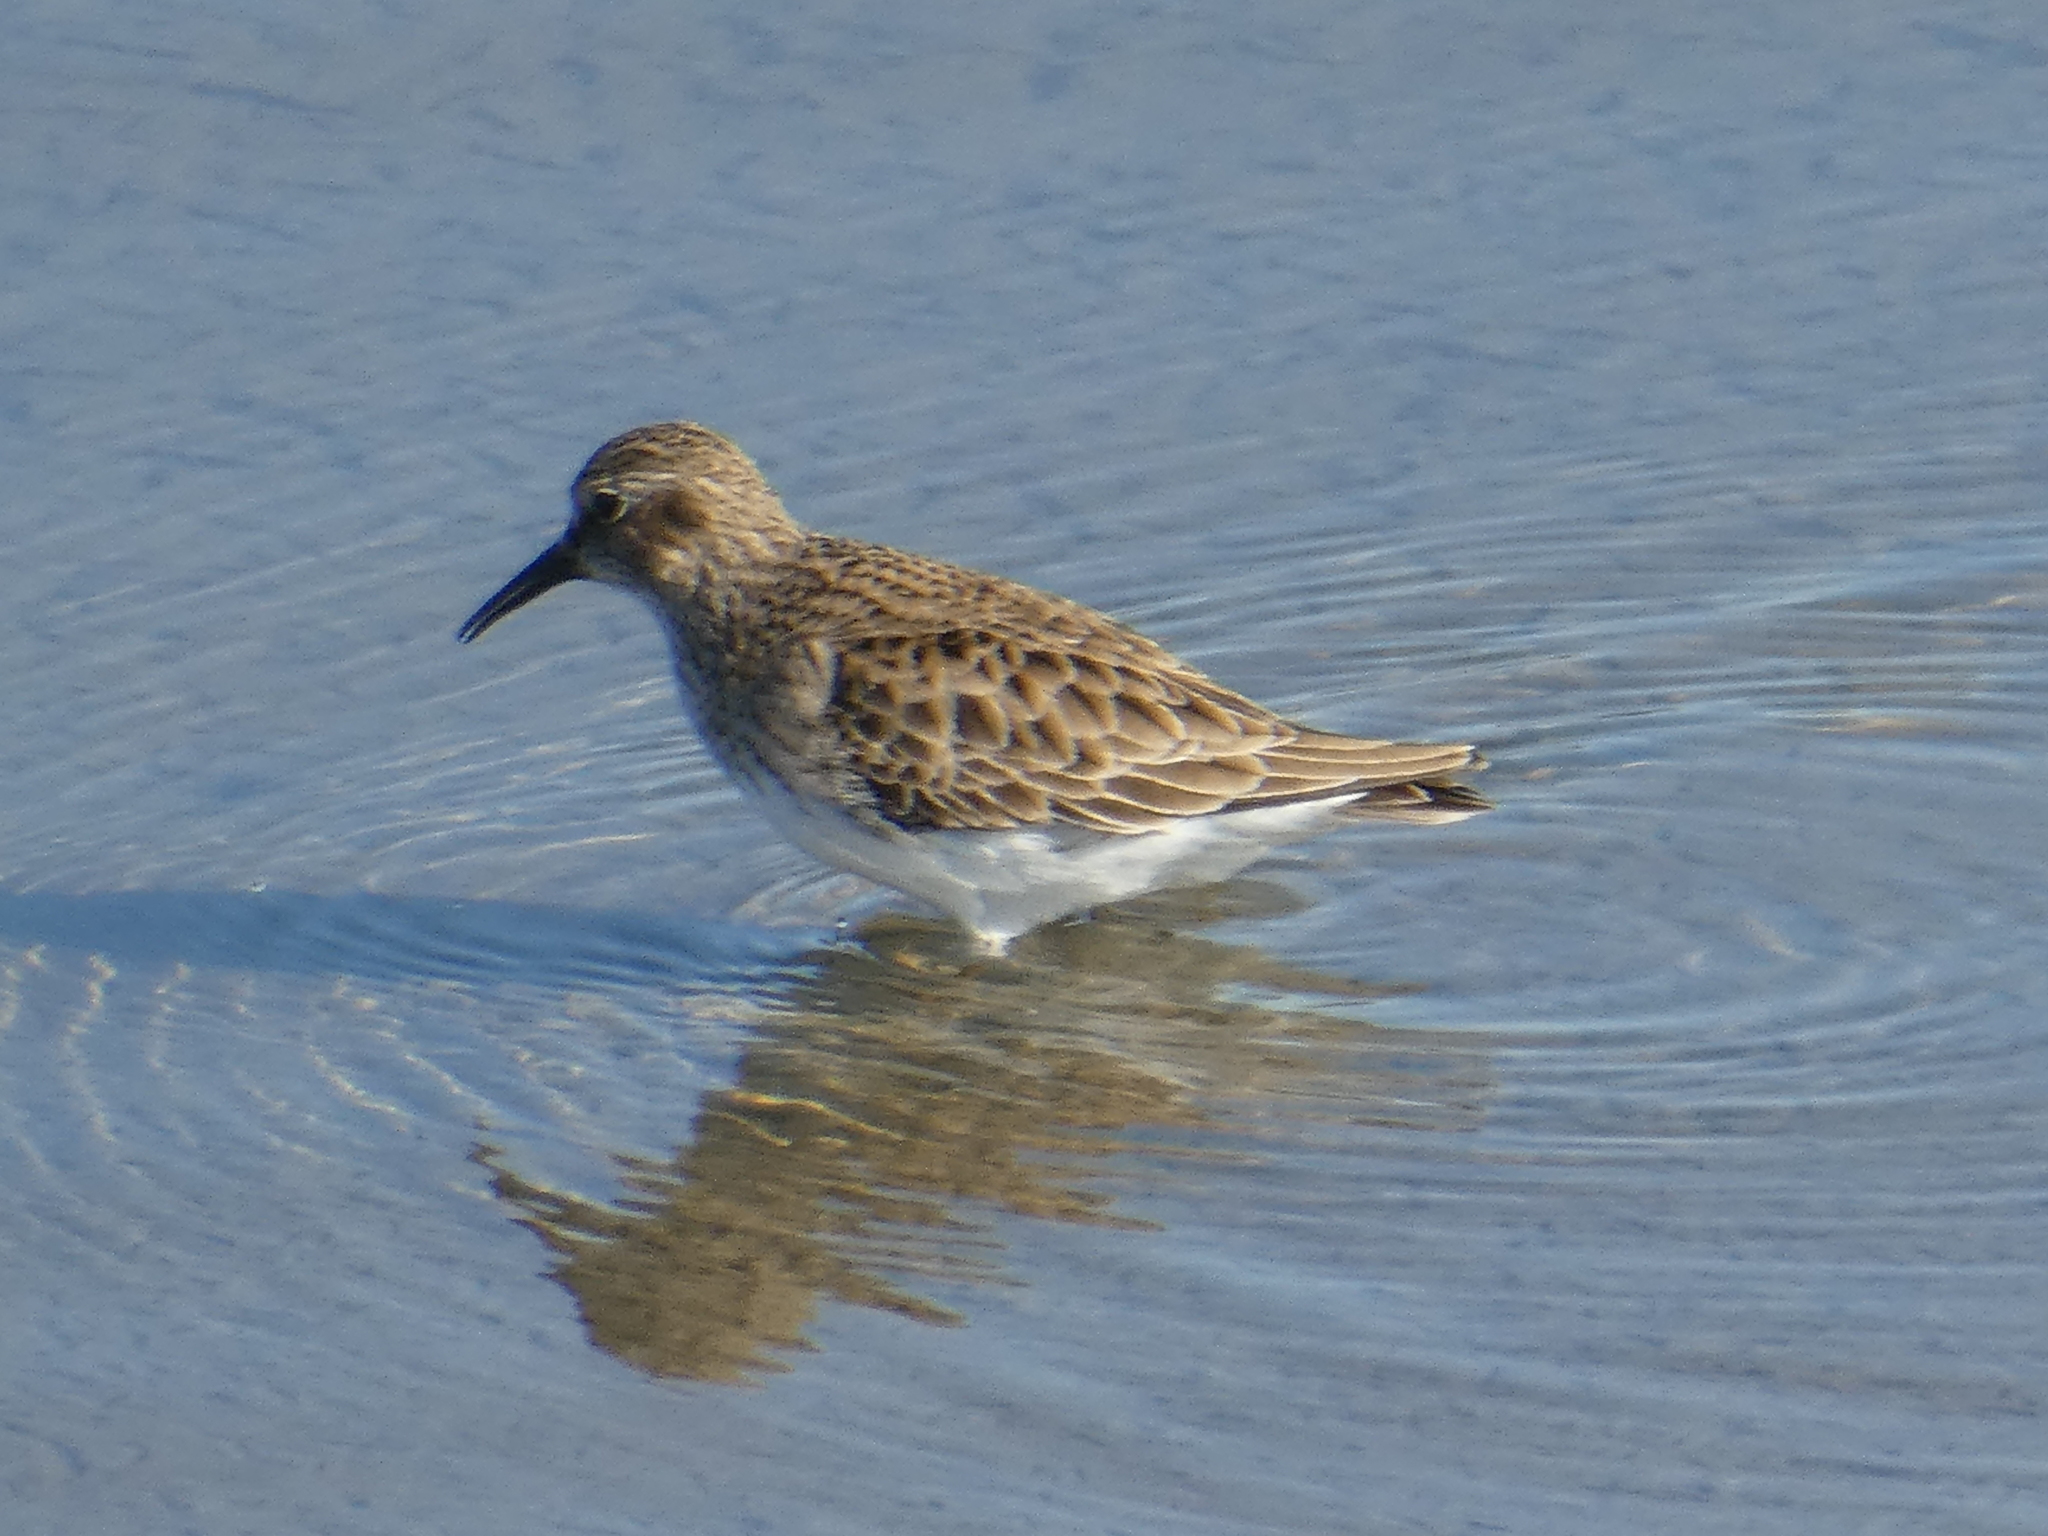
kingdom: Animalia
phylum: Chordata
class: Aves
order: Charadriiformes
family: Scolopacidae
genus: Calidris
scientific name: Calidris minutilla
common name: Least sandpiper
